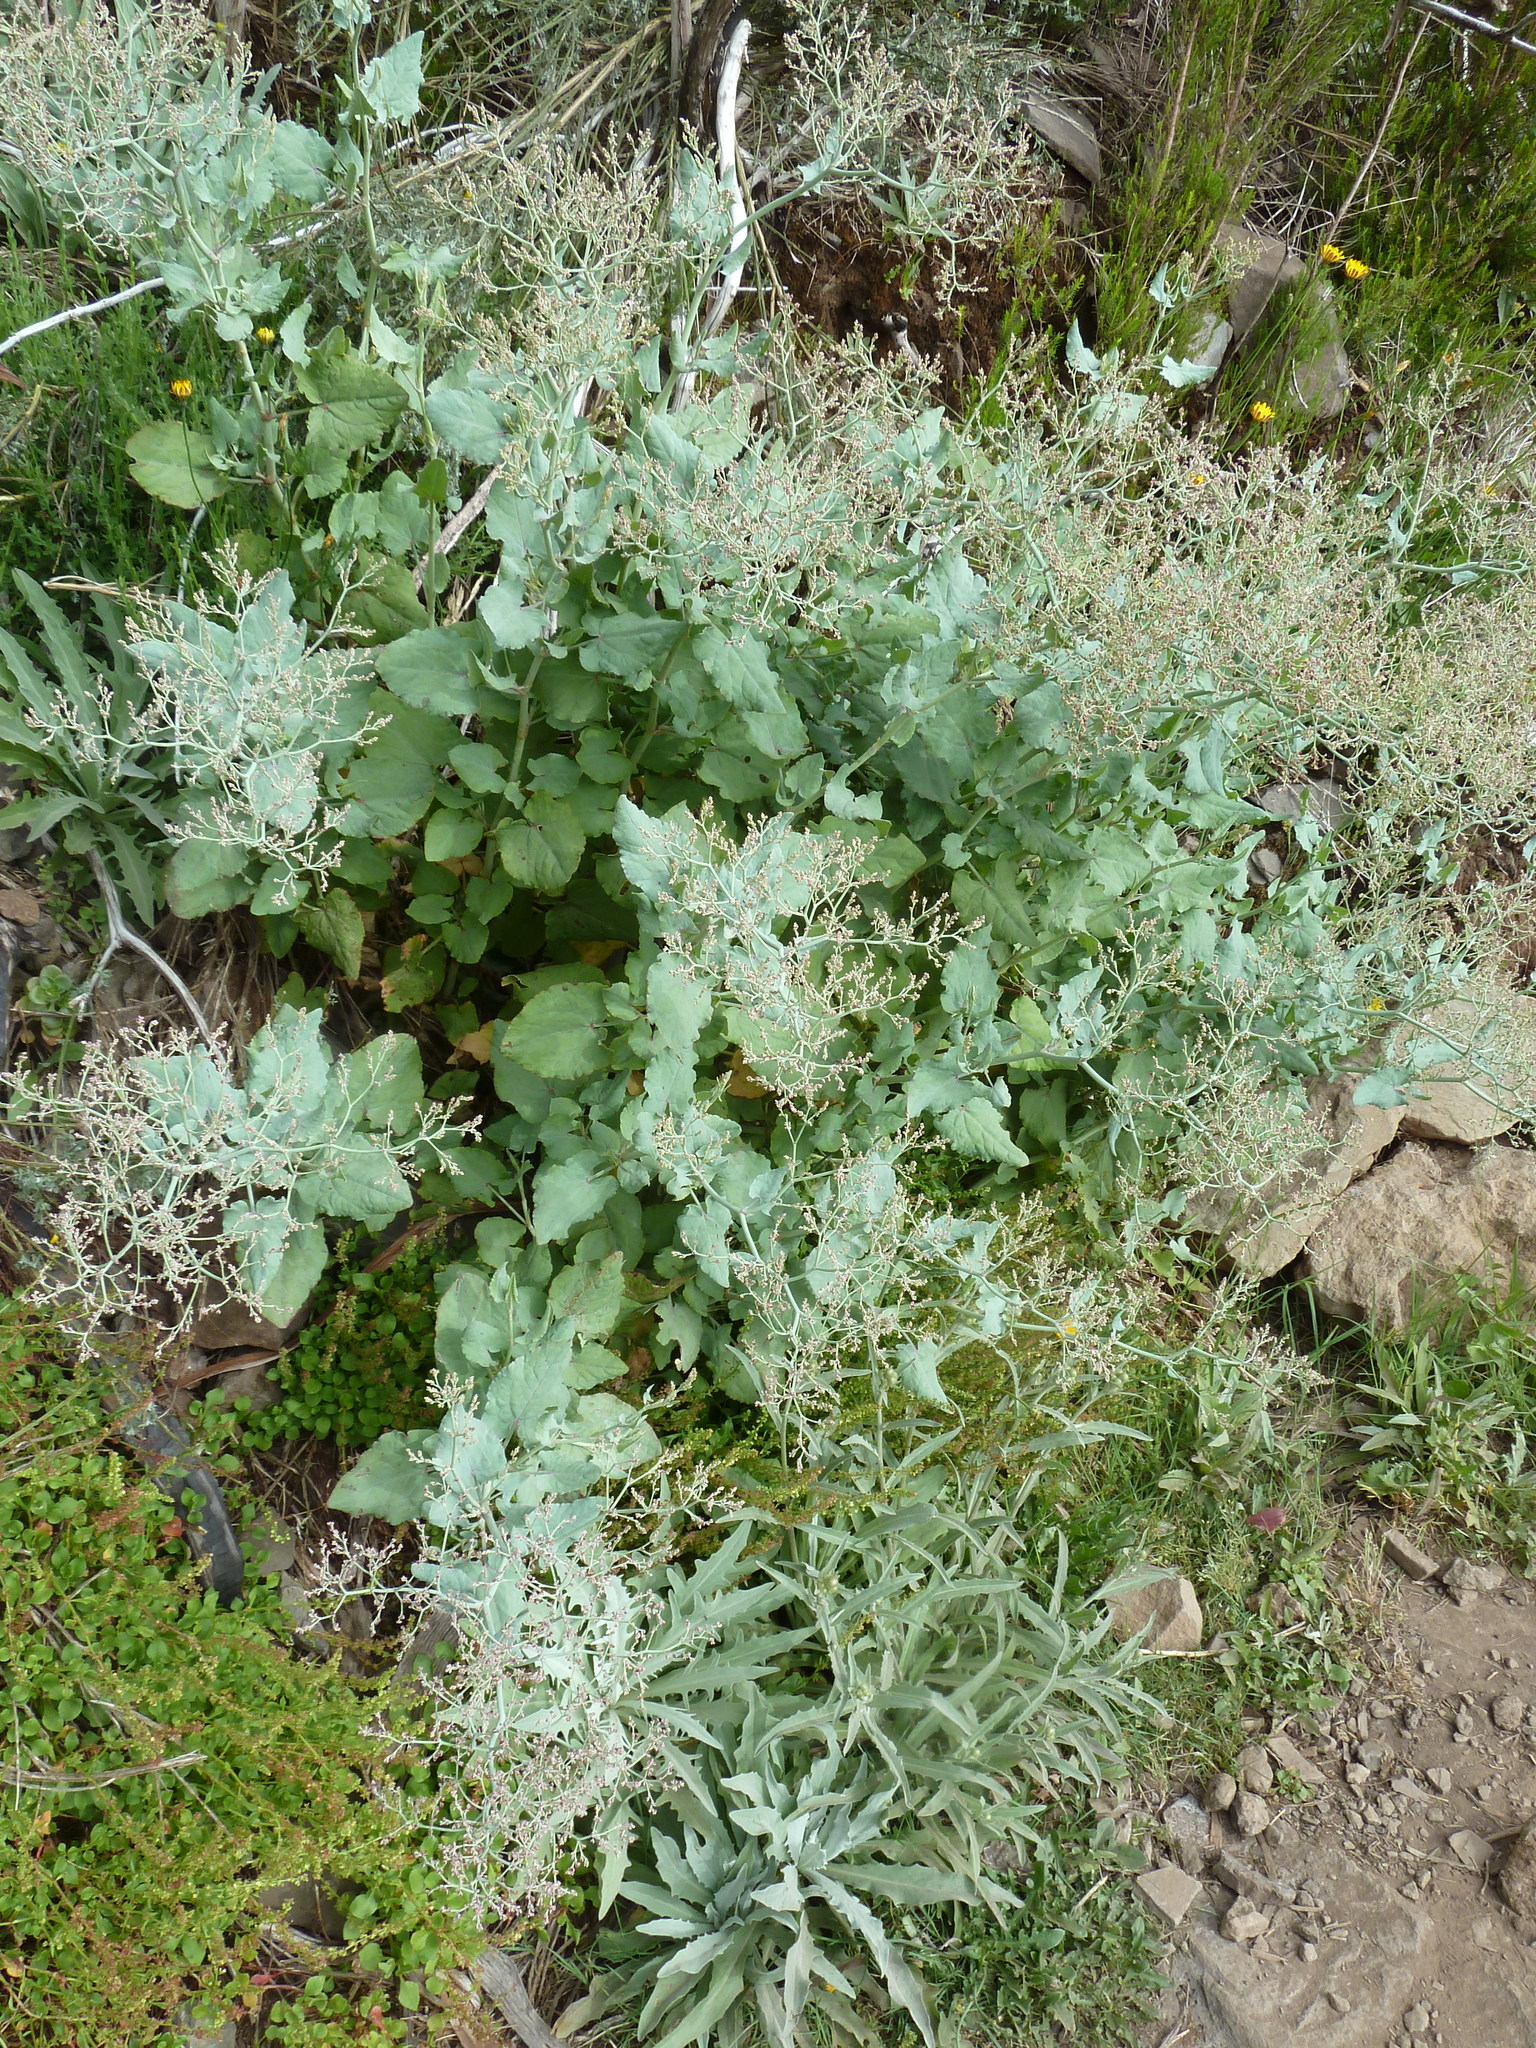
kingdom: Plantae
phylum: Tracheophyta
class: Magnoliopsida
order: Caryophyllales
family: Polygonaceae
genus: Rumex
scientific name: Rumex maderensis
